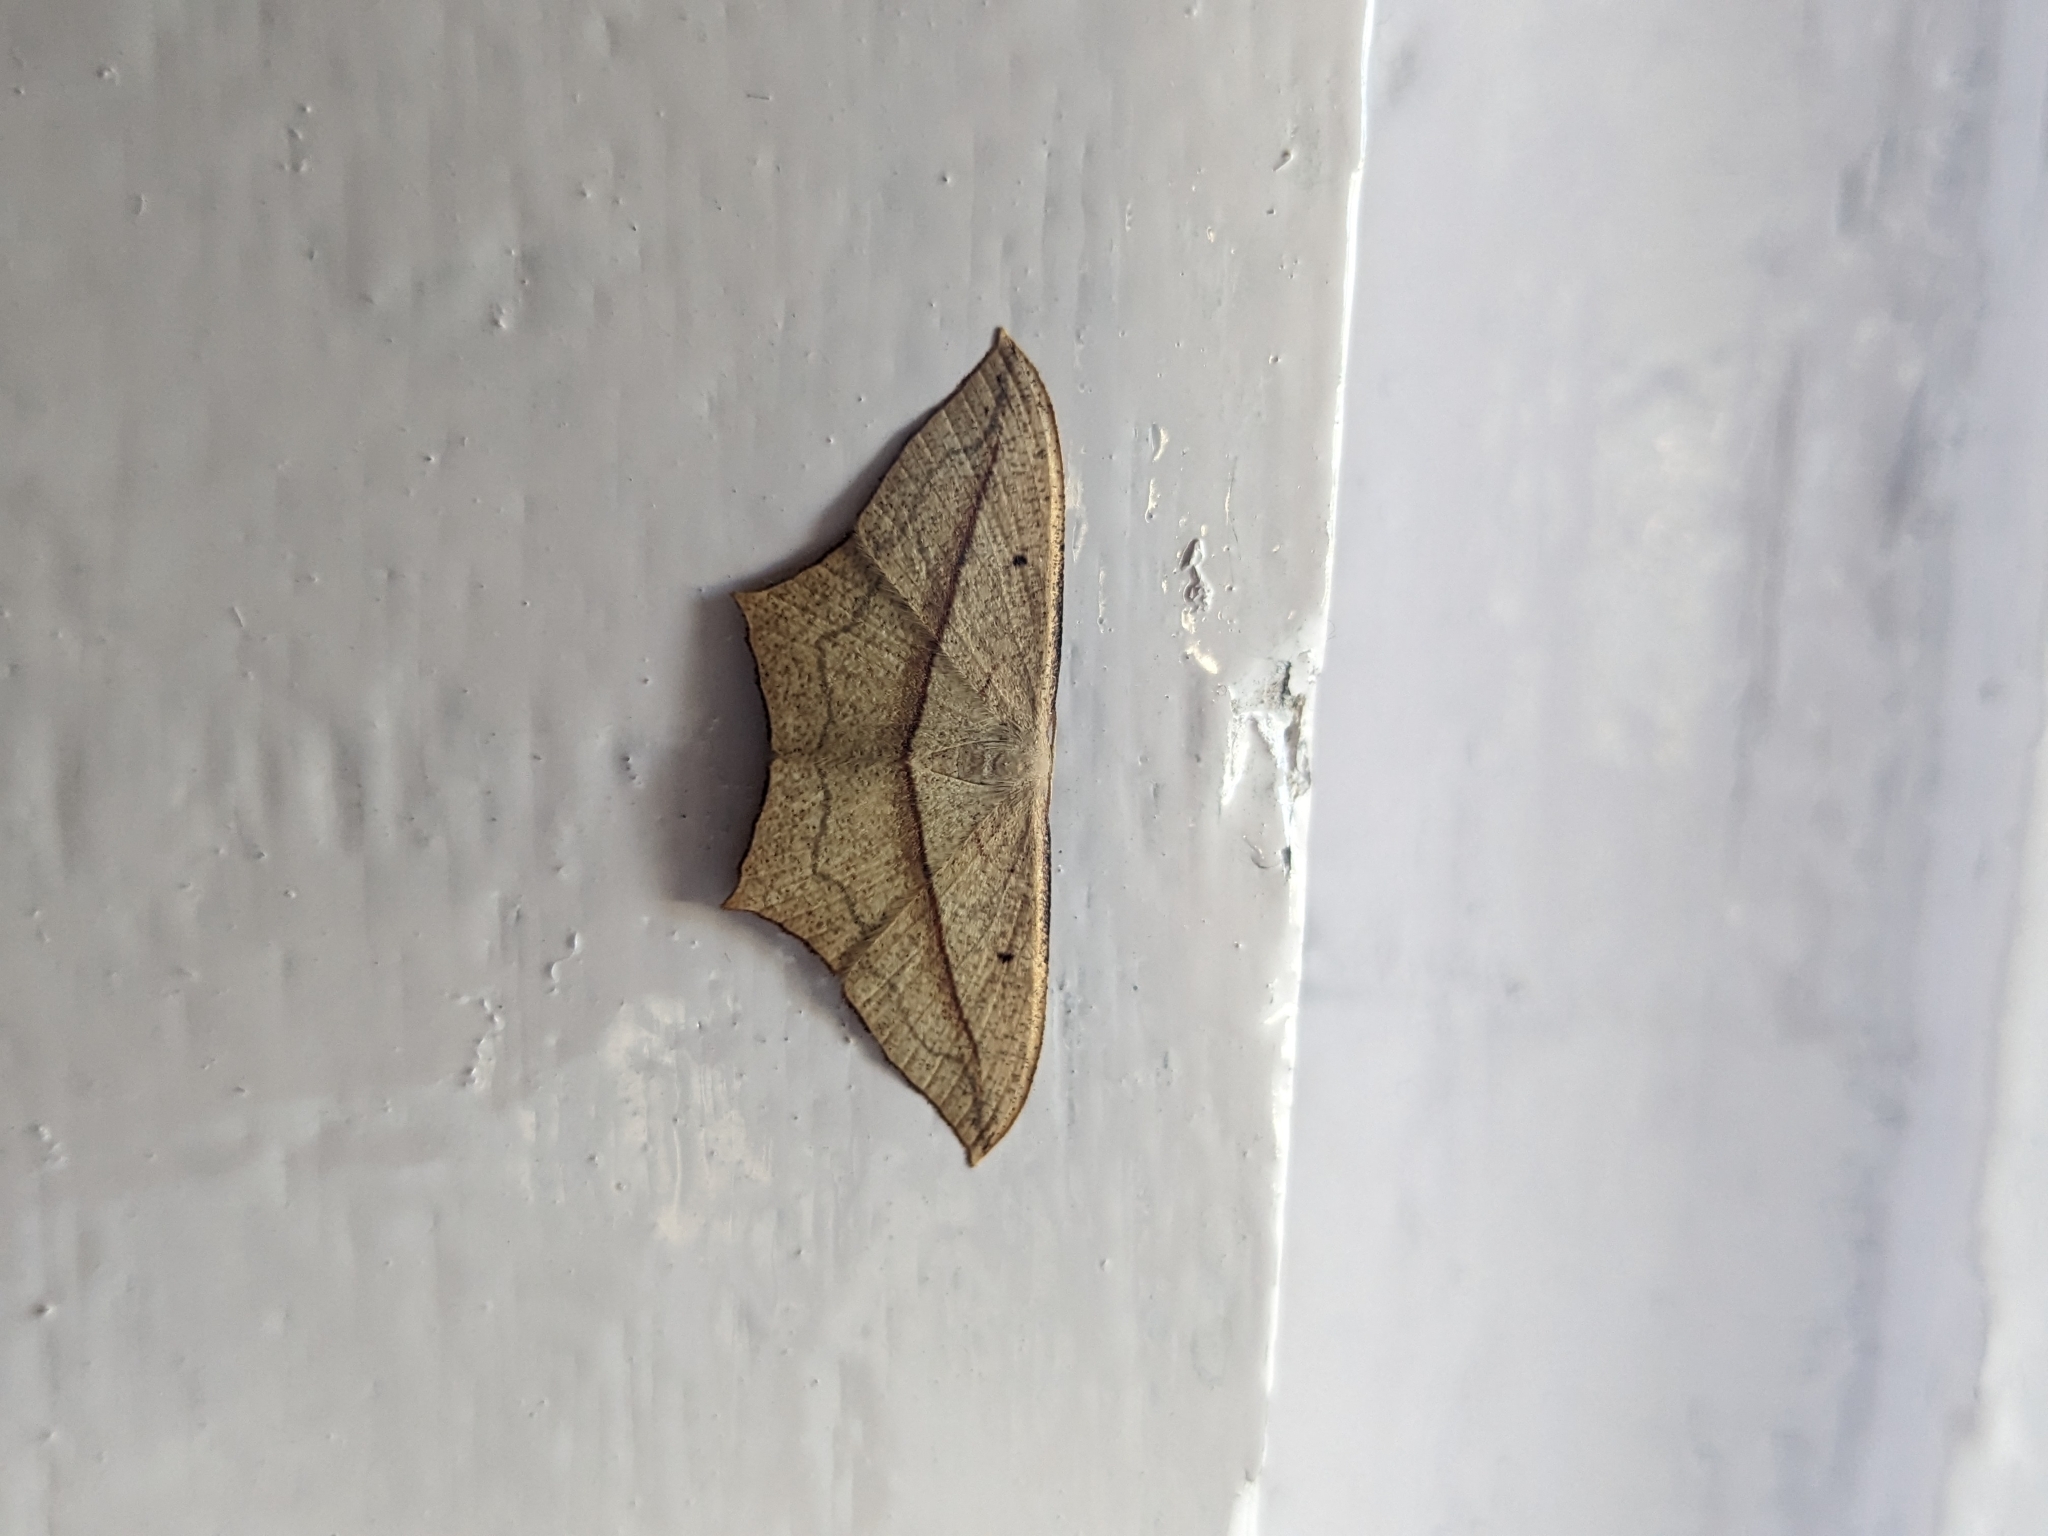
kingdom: Animalia
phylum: Arthropoda
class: Insecta
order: Lepidoptera
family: Geometridae
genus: Timandra
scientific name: Timandra convectaria
